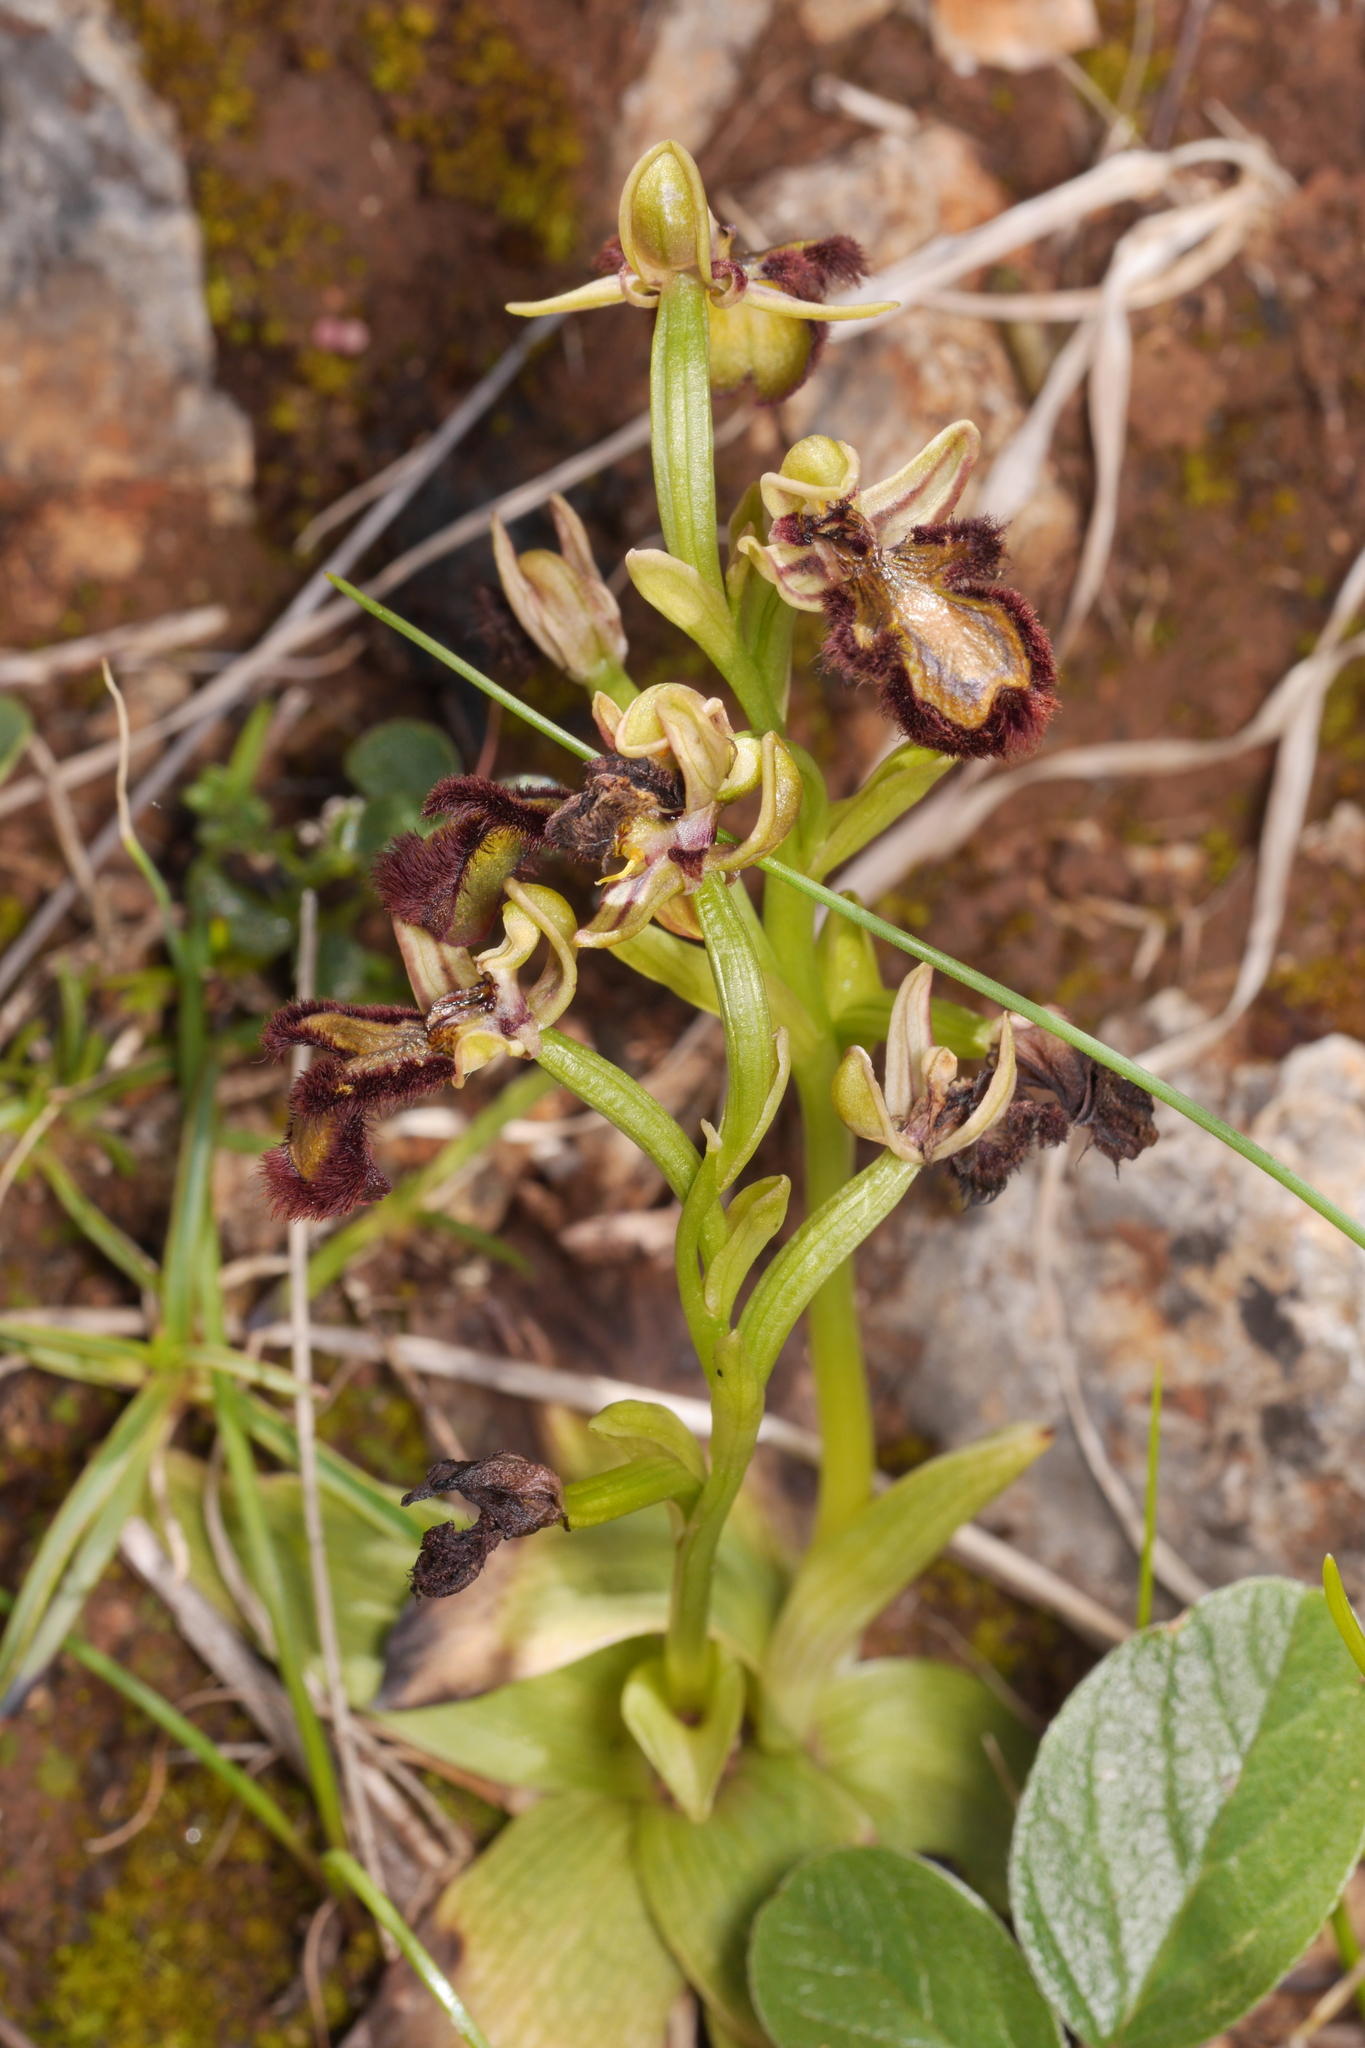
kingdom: Plantae
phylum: Tracheophyta
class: Liliopsida
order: Asparagales
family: Orchidaceae
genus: Ophrys
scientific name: Ophrys speculum
